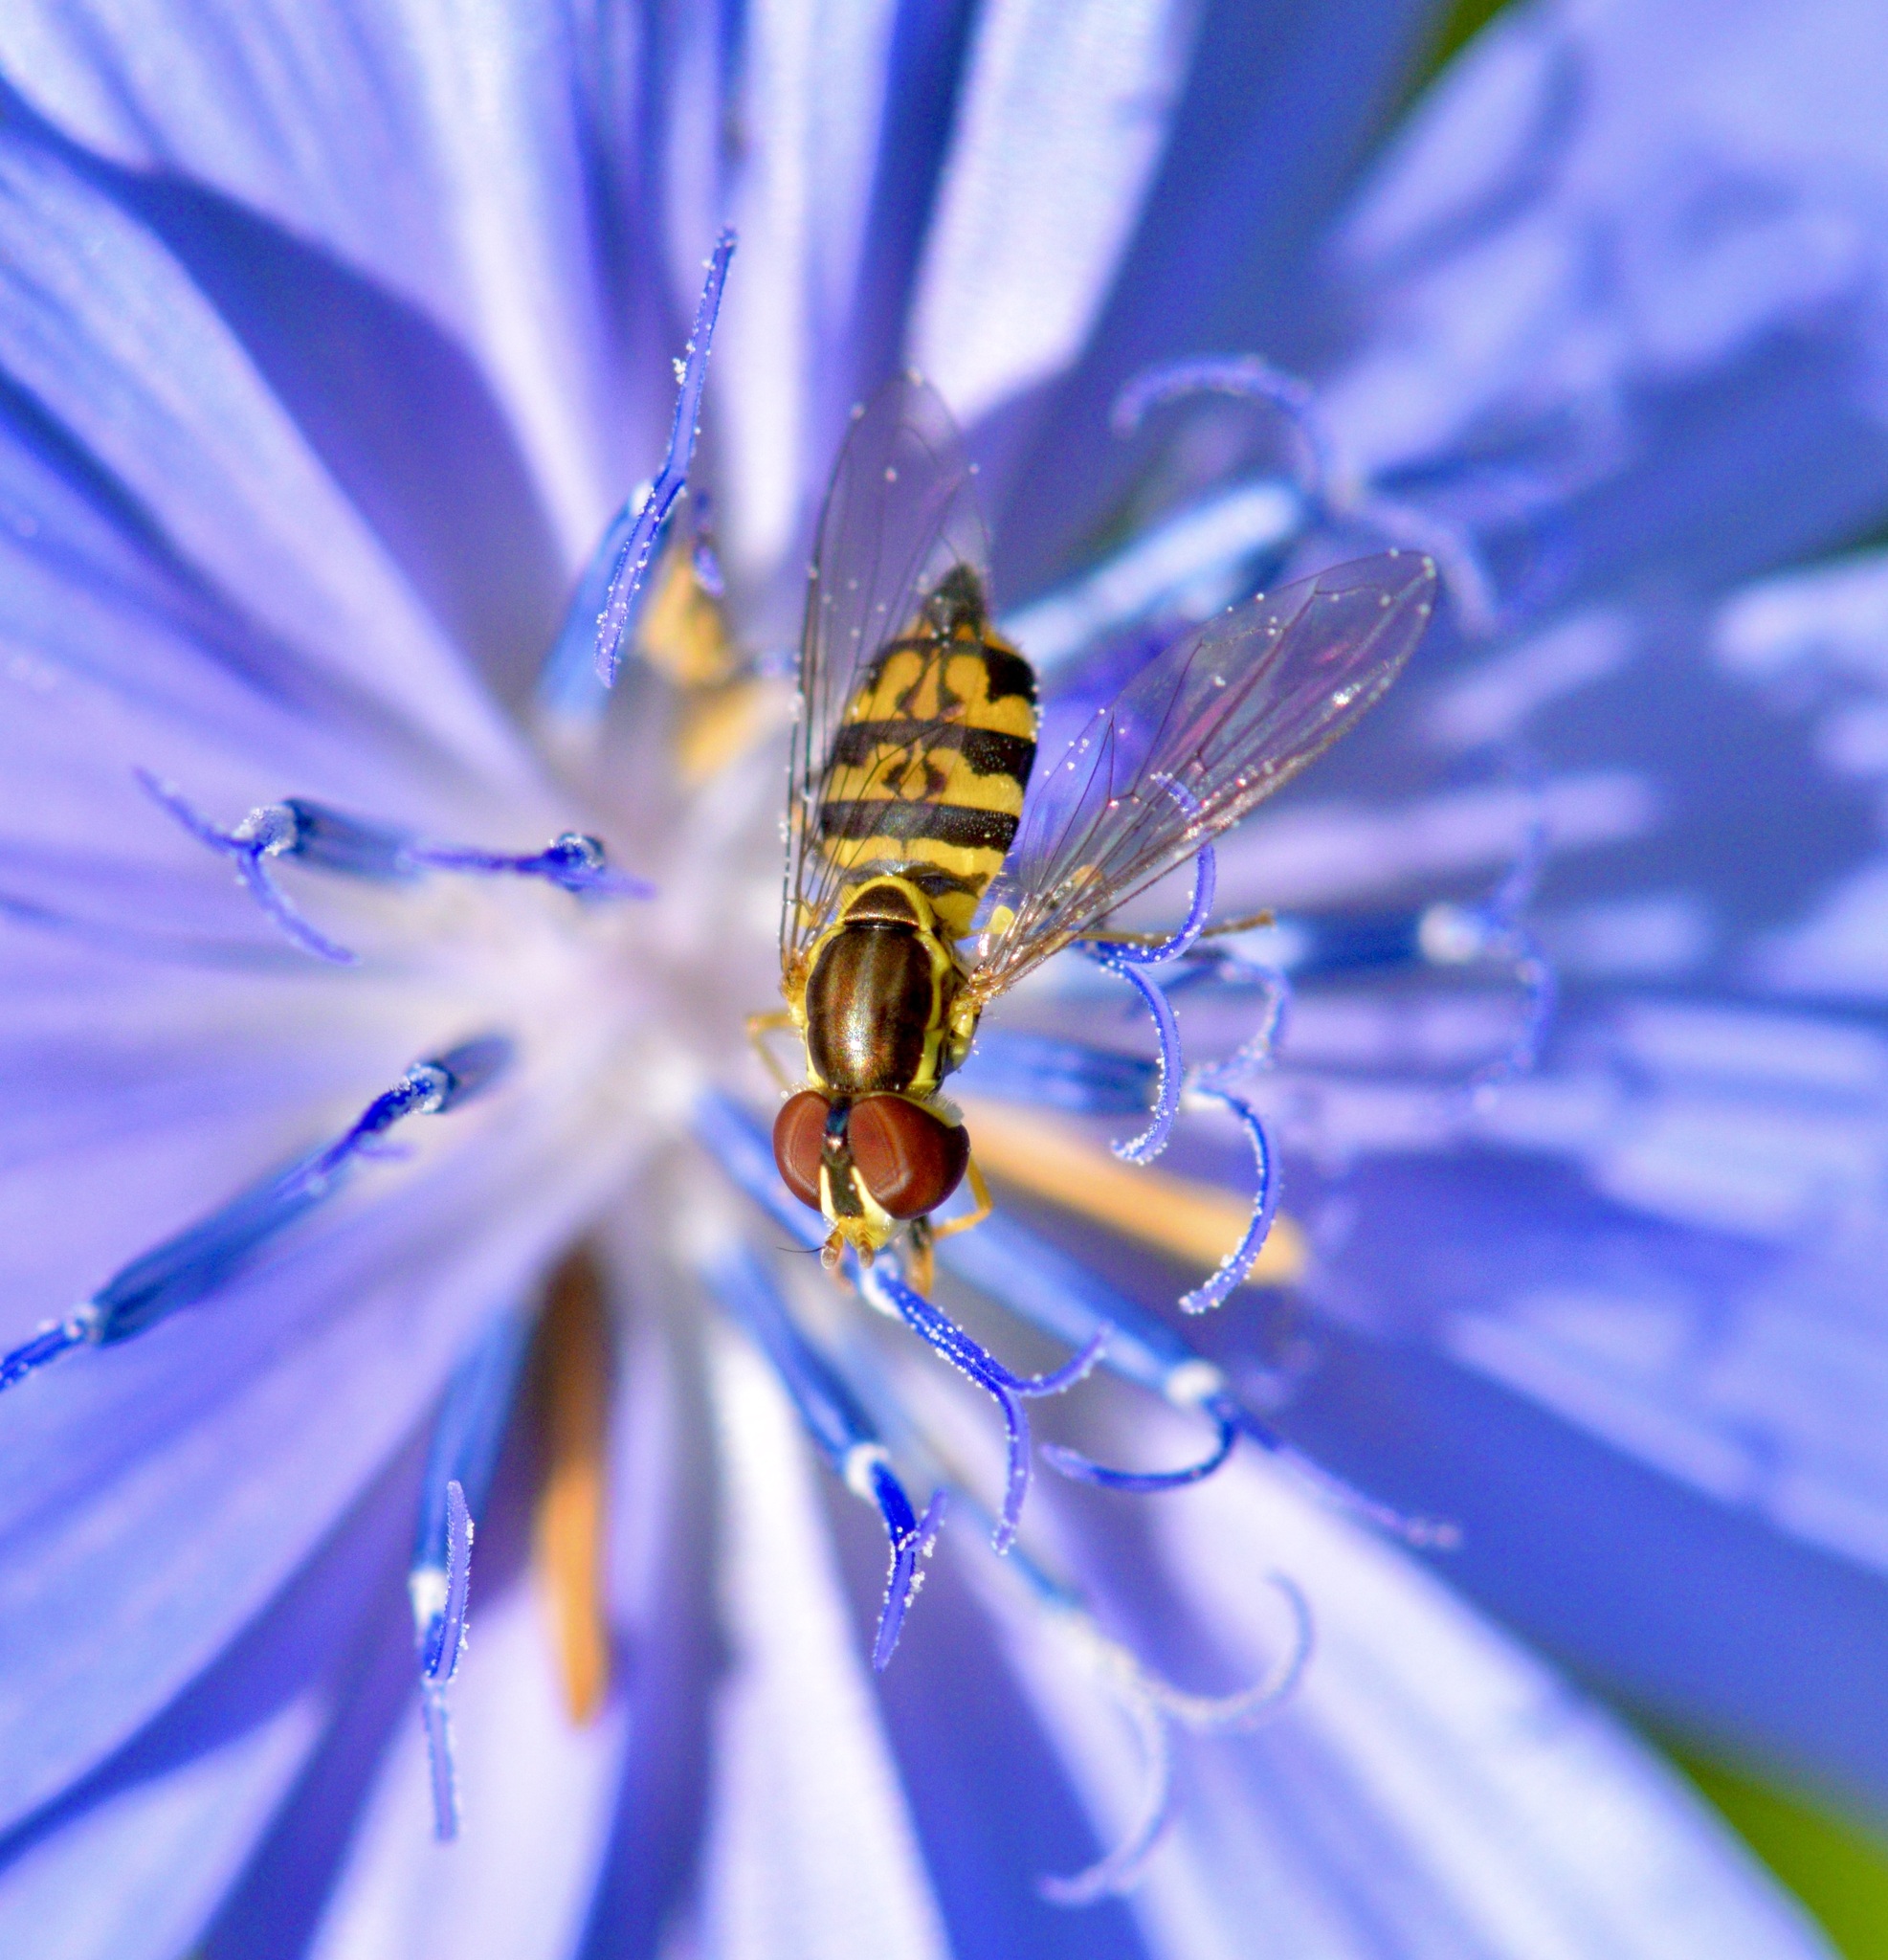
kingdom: Animalia
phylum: Arthropoda
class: Insecta
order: Diptera
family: Syrphidae
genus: Toxomerus
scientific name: Toxomerus geminatus
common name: Eastern calligrapher
